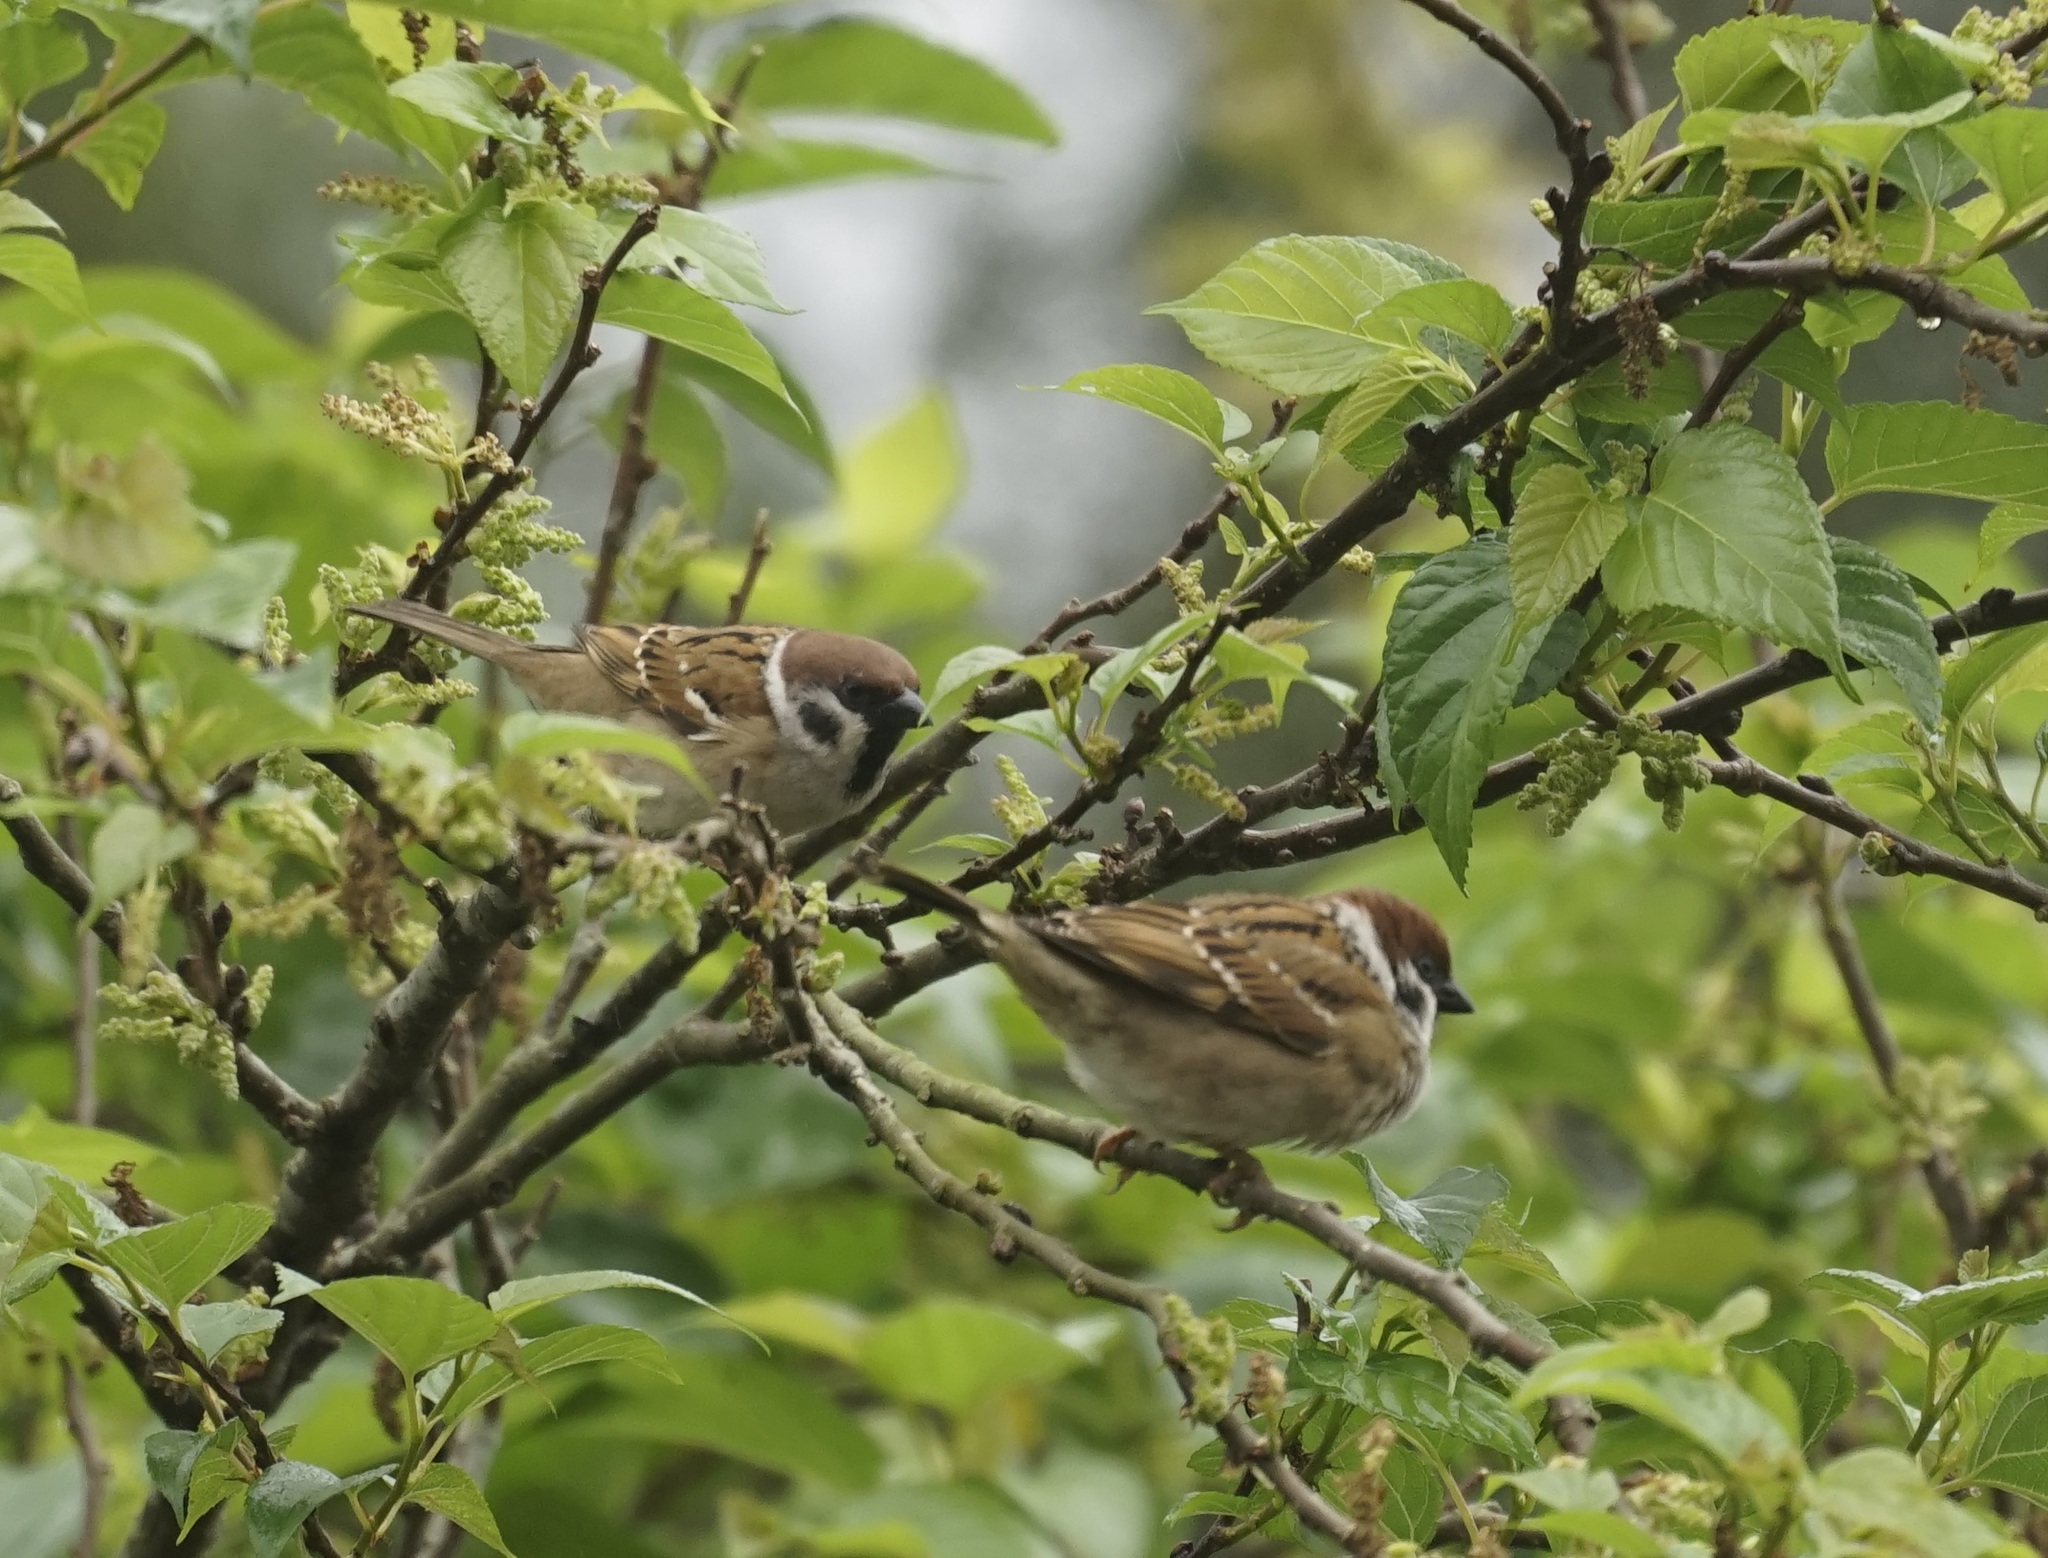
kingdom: Animalia
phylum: Chordata
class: Aves
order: Passeriformes
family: Passeridae
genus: Passer
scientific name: Passer montanus
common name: Eurasian tree sparrow
